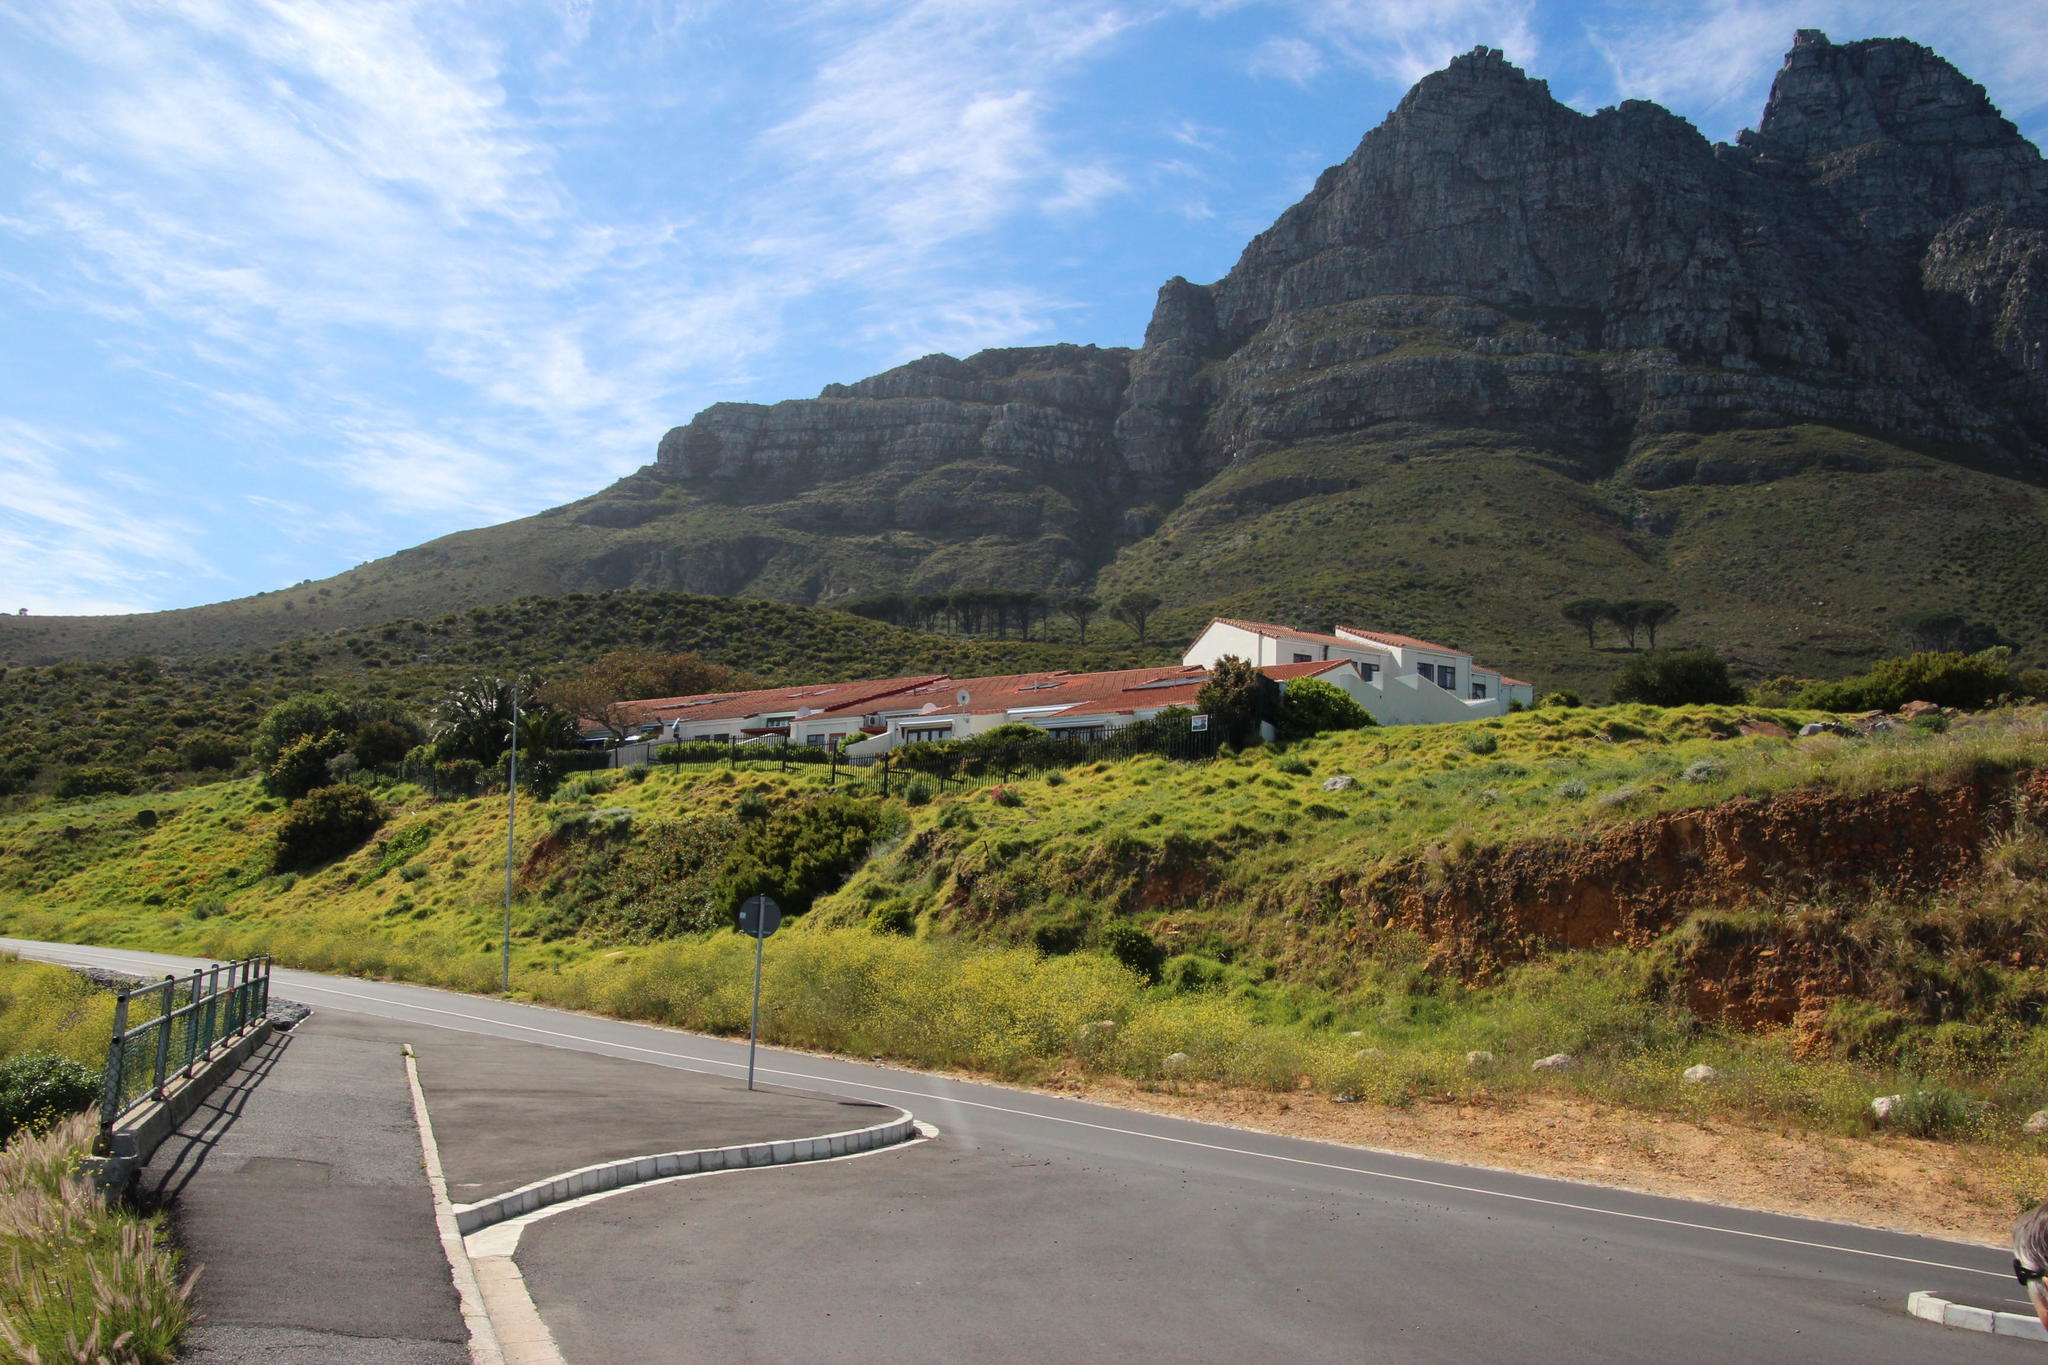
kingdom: Plantae
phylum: Tracheophyta
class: Magnoliopsida
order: Dipsacales
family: Caprifoliaceae
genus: Centranthus
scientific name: Centranthus ruber
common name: Red valerian
